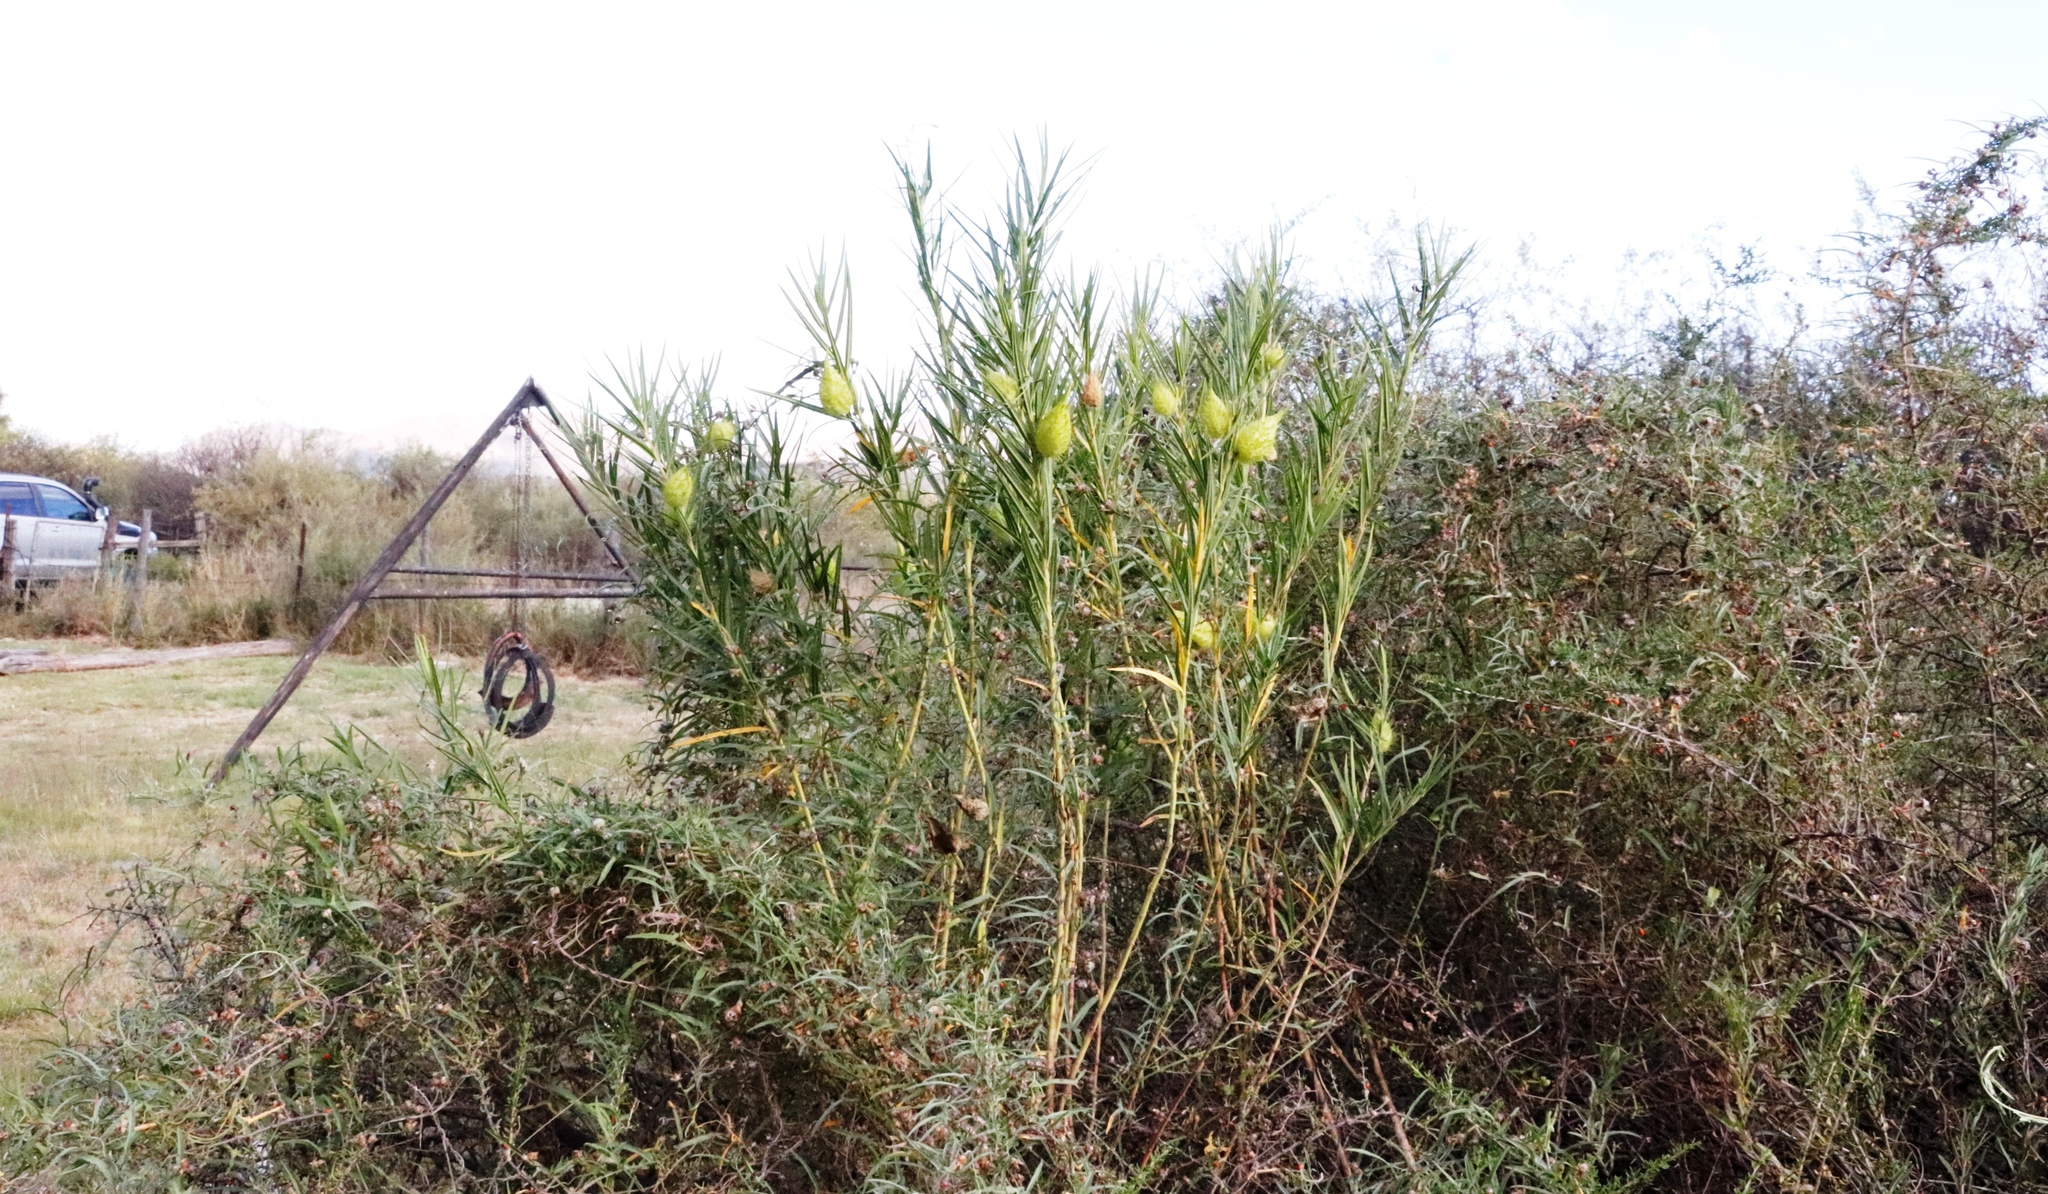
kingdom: Plantae
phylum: Tracheophyta
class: Magnoliopsida
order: Gentianales
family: Apocynaceae
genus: Gomphocarpus
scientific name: Gomphocarpus fruticosus
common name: Milkweed
